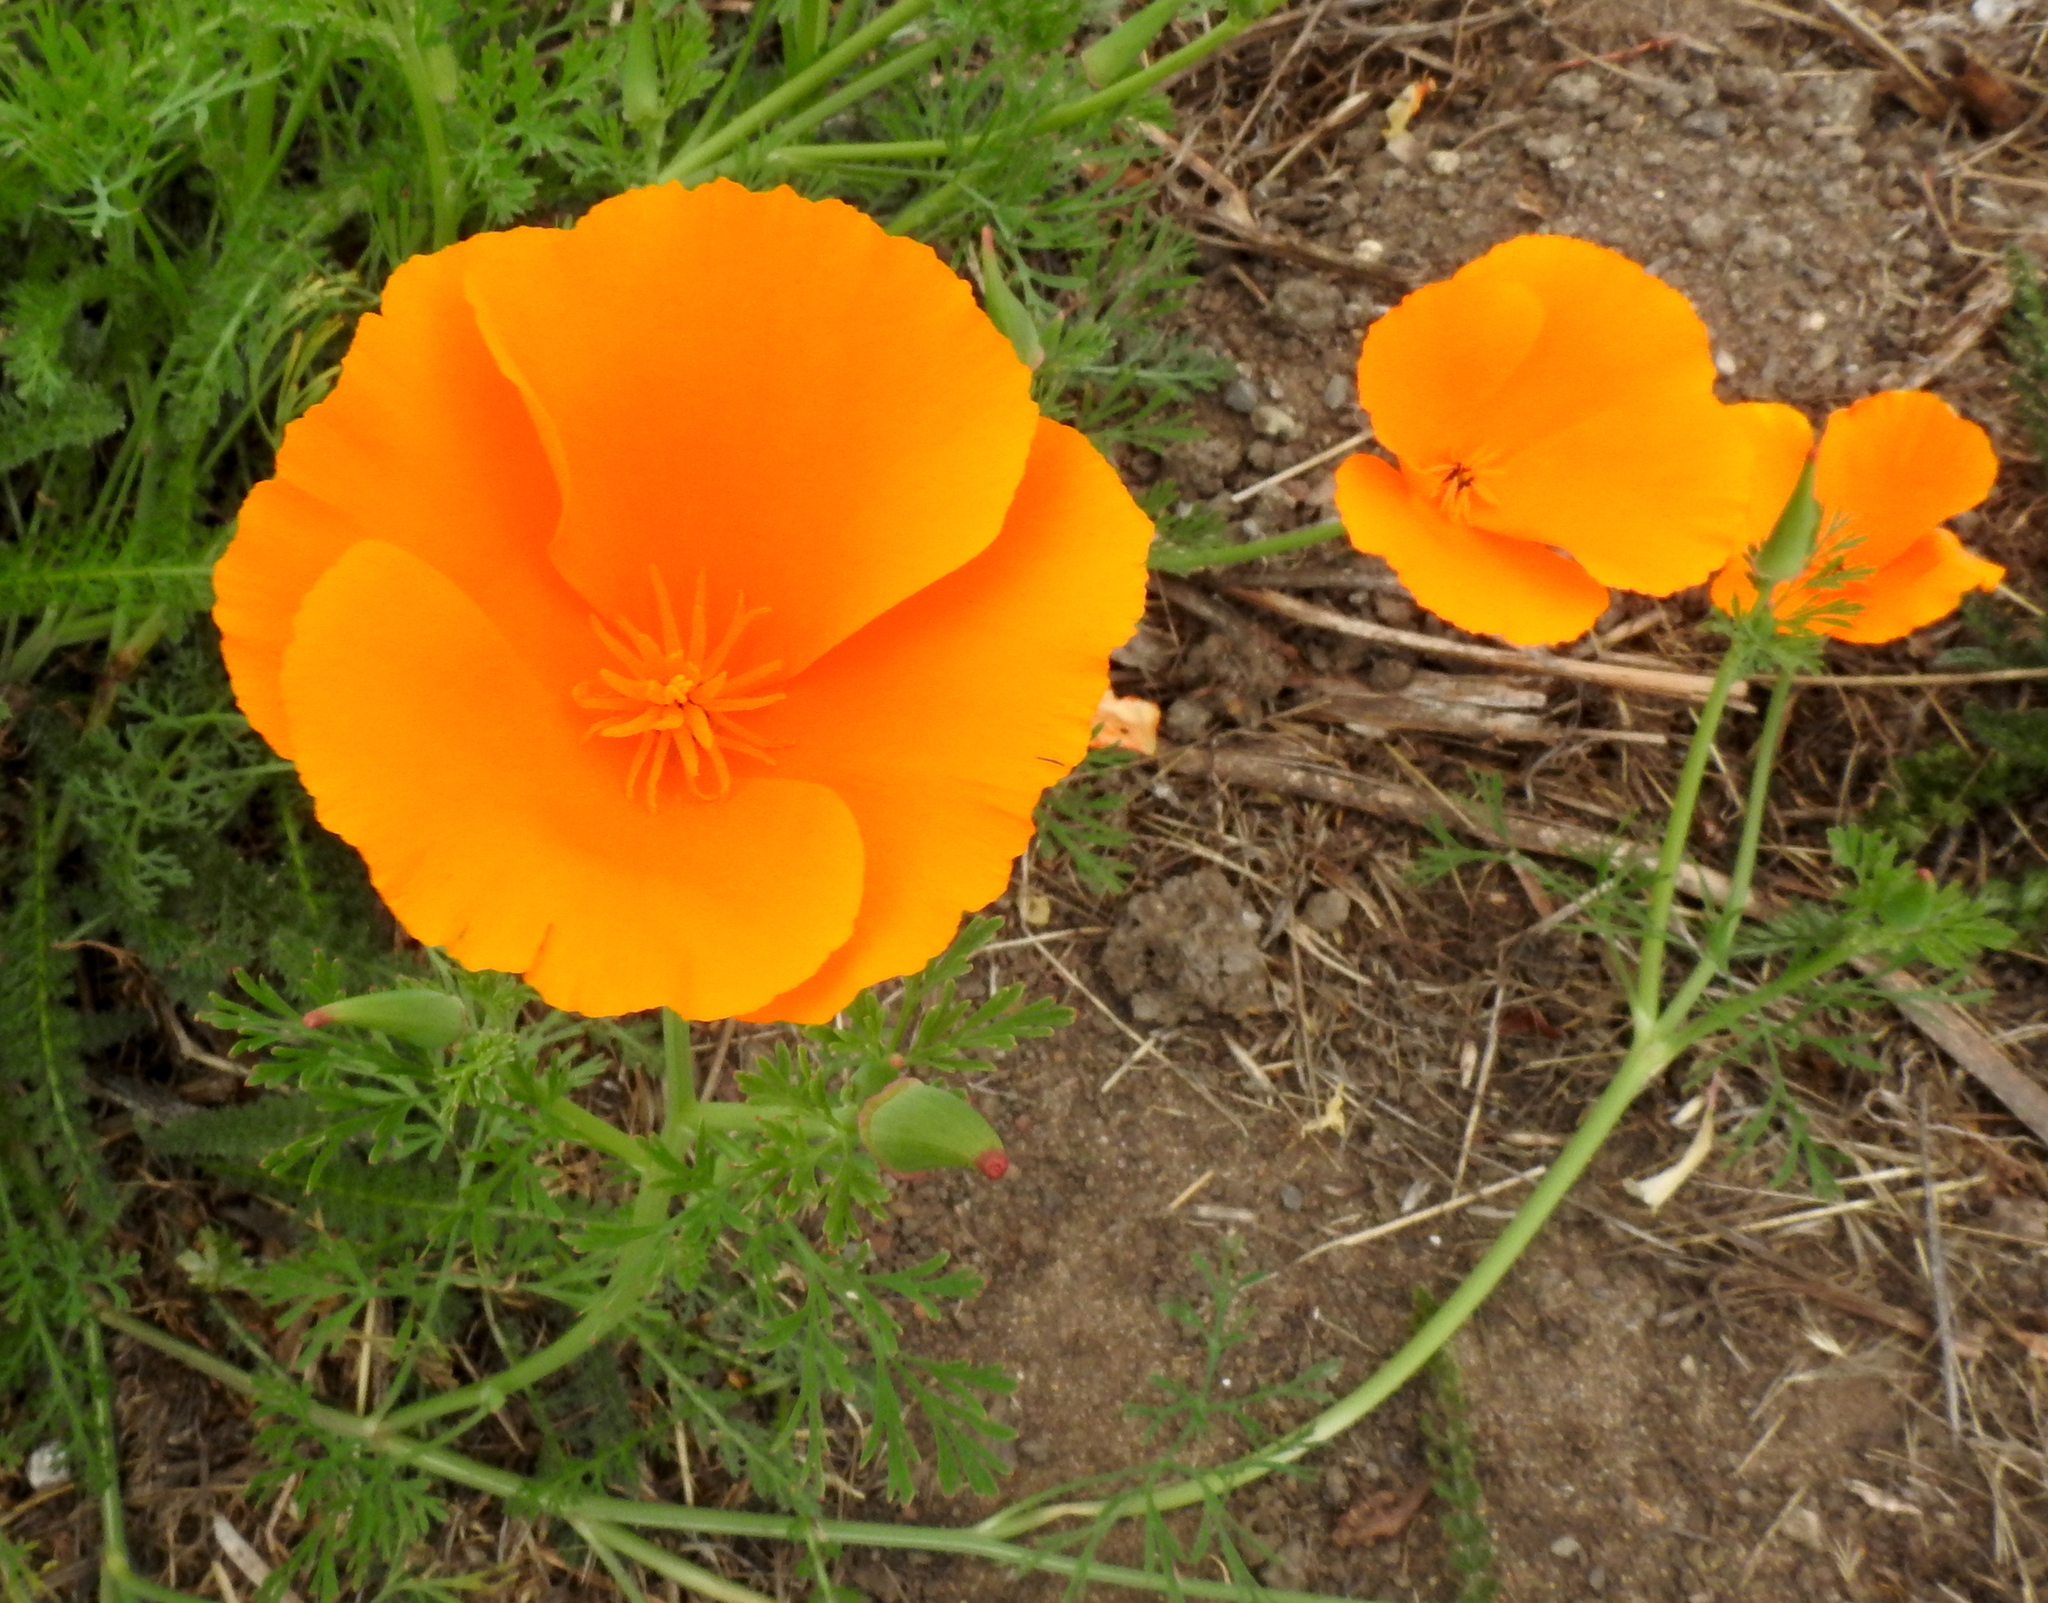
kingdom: Plantae
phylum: Tracheophyta
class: Magnoliopsida
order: Ranunculales
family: Papaveraceae
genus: Eschscholzia
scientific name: Eschscholzia californica
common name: California poppy
